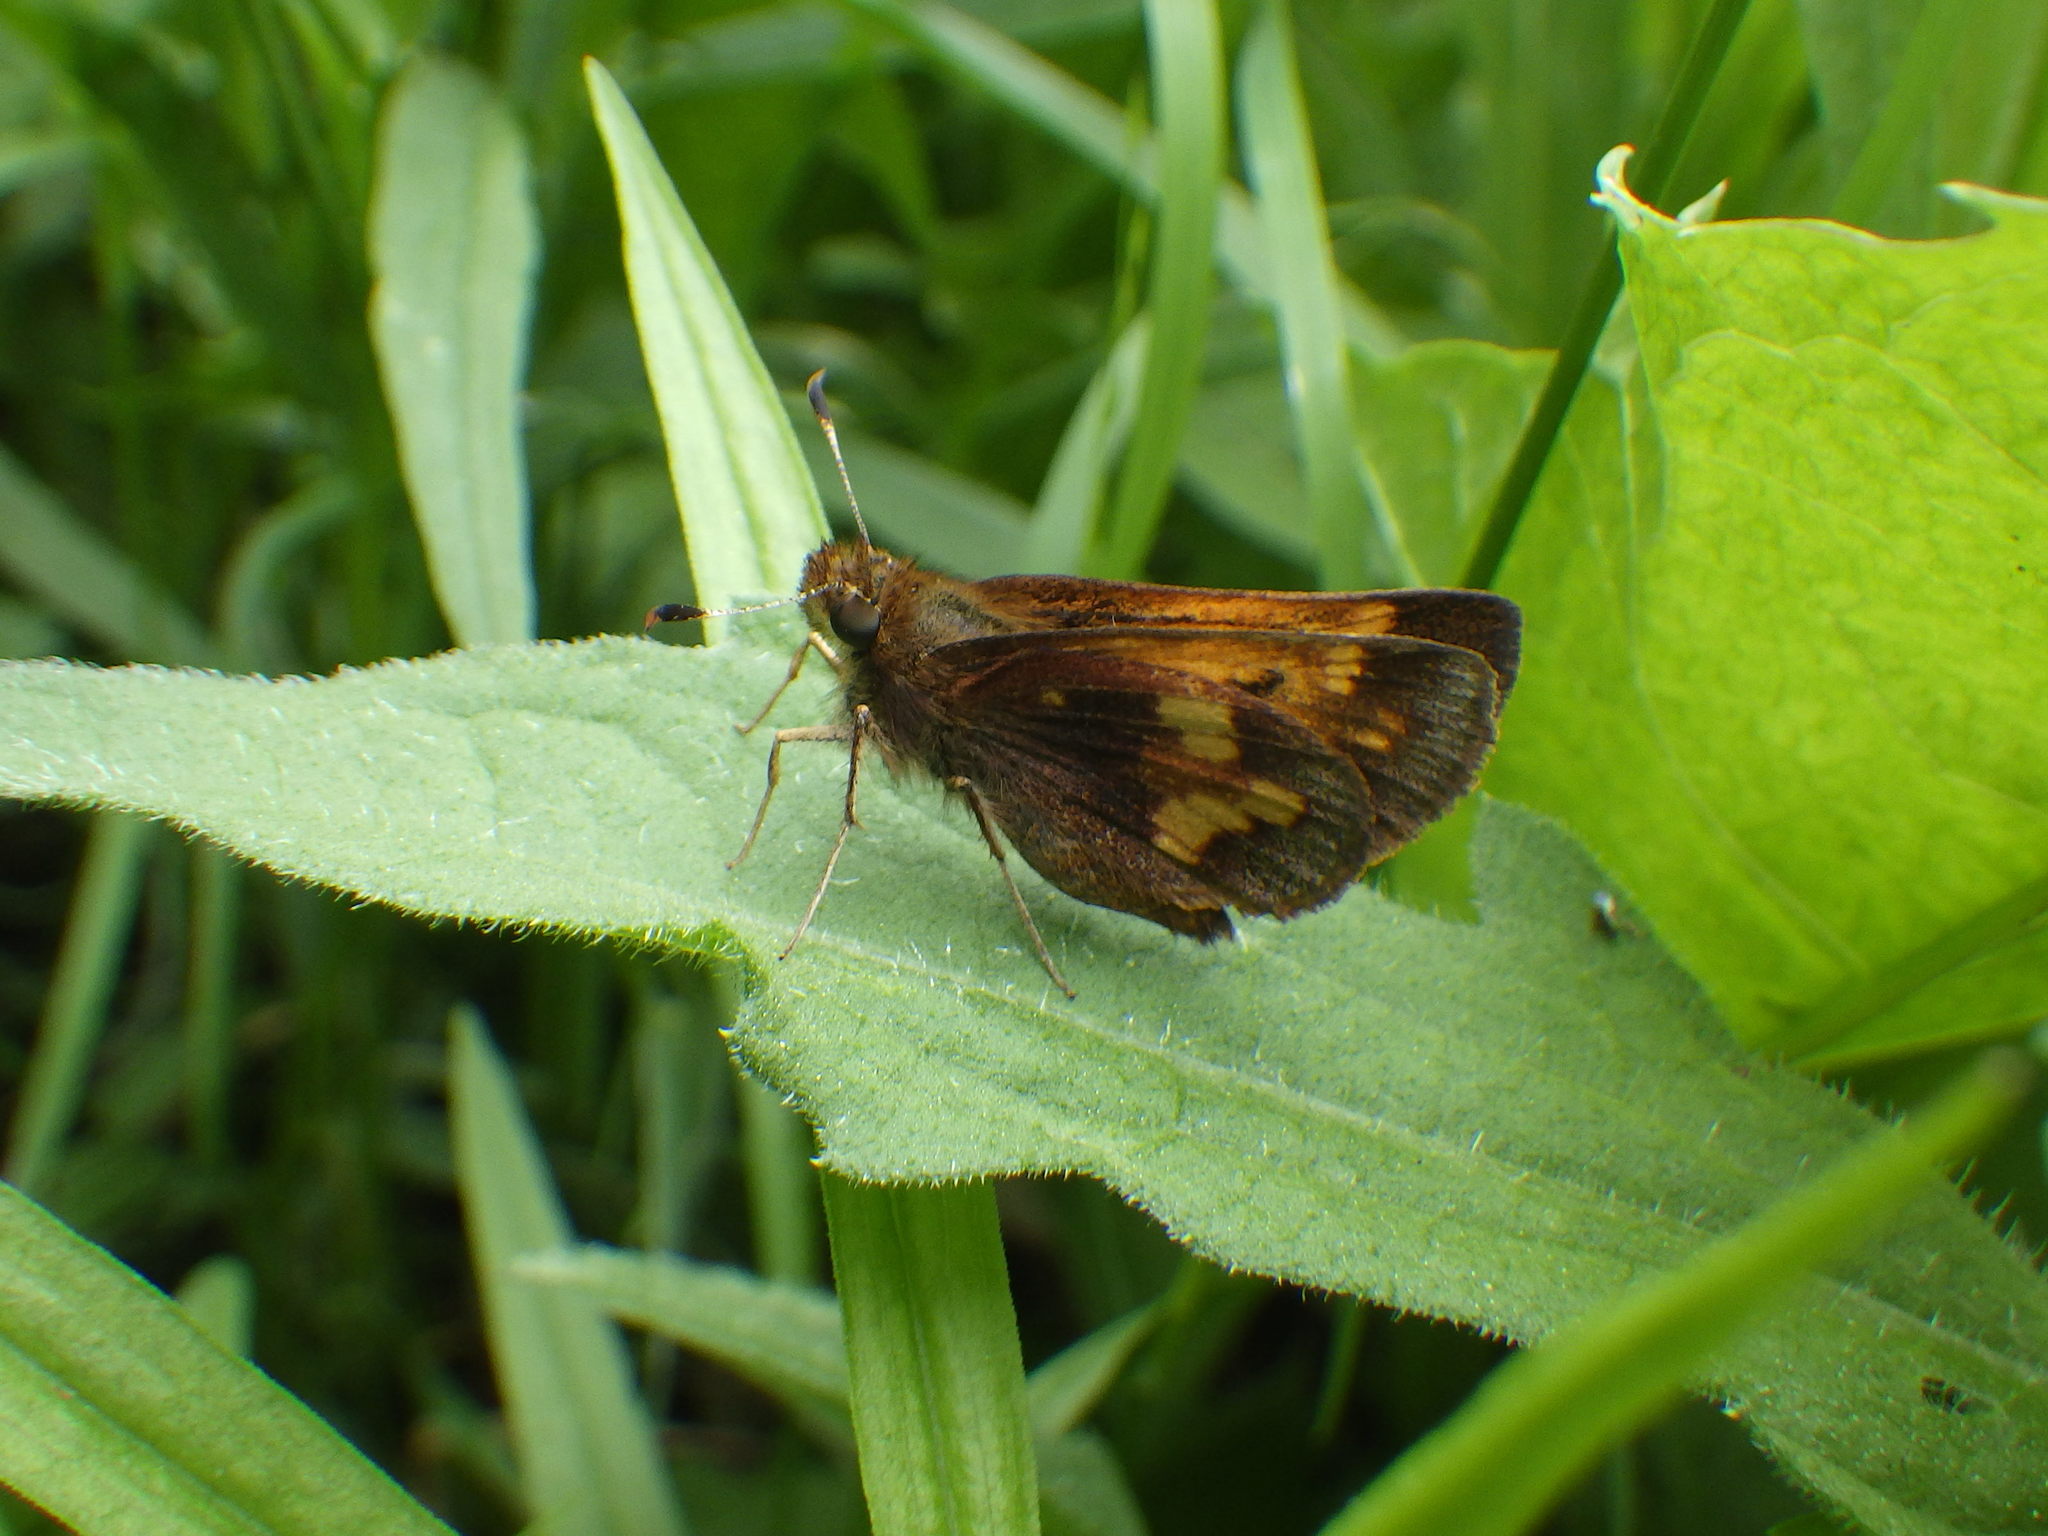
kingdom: Animalia
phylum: Arthropoda
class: Insecta
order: Lepidoptera
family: Hesperiidae
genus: Lon
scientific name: Lon hobomok
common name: Hobomok skipper
